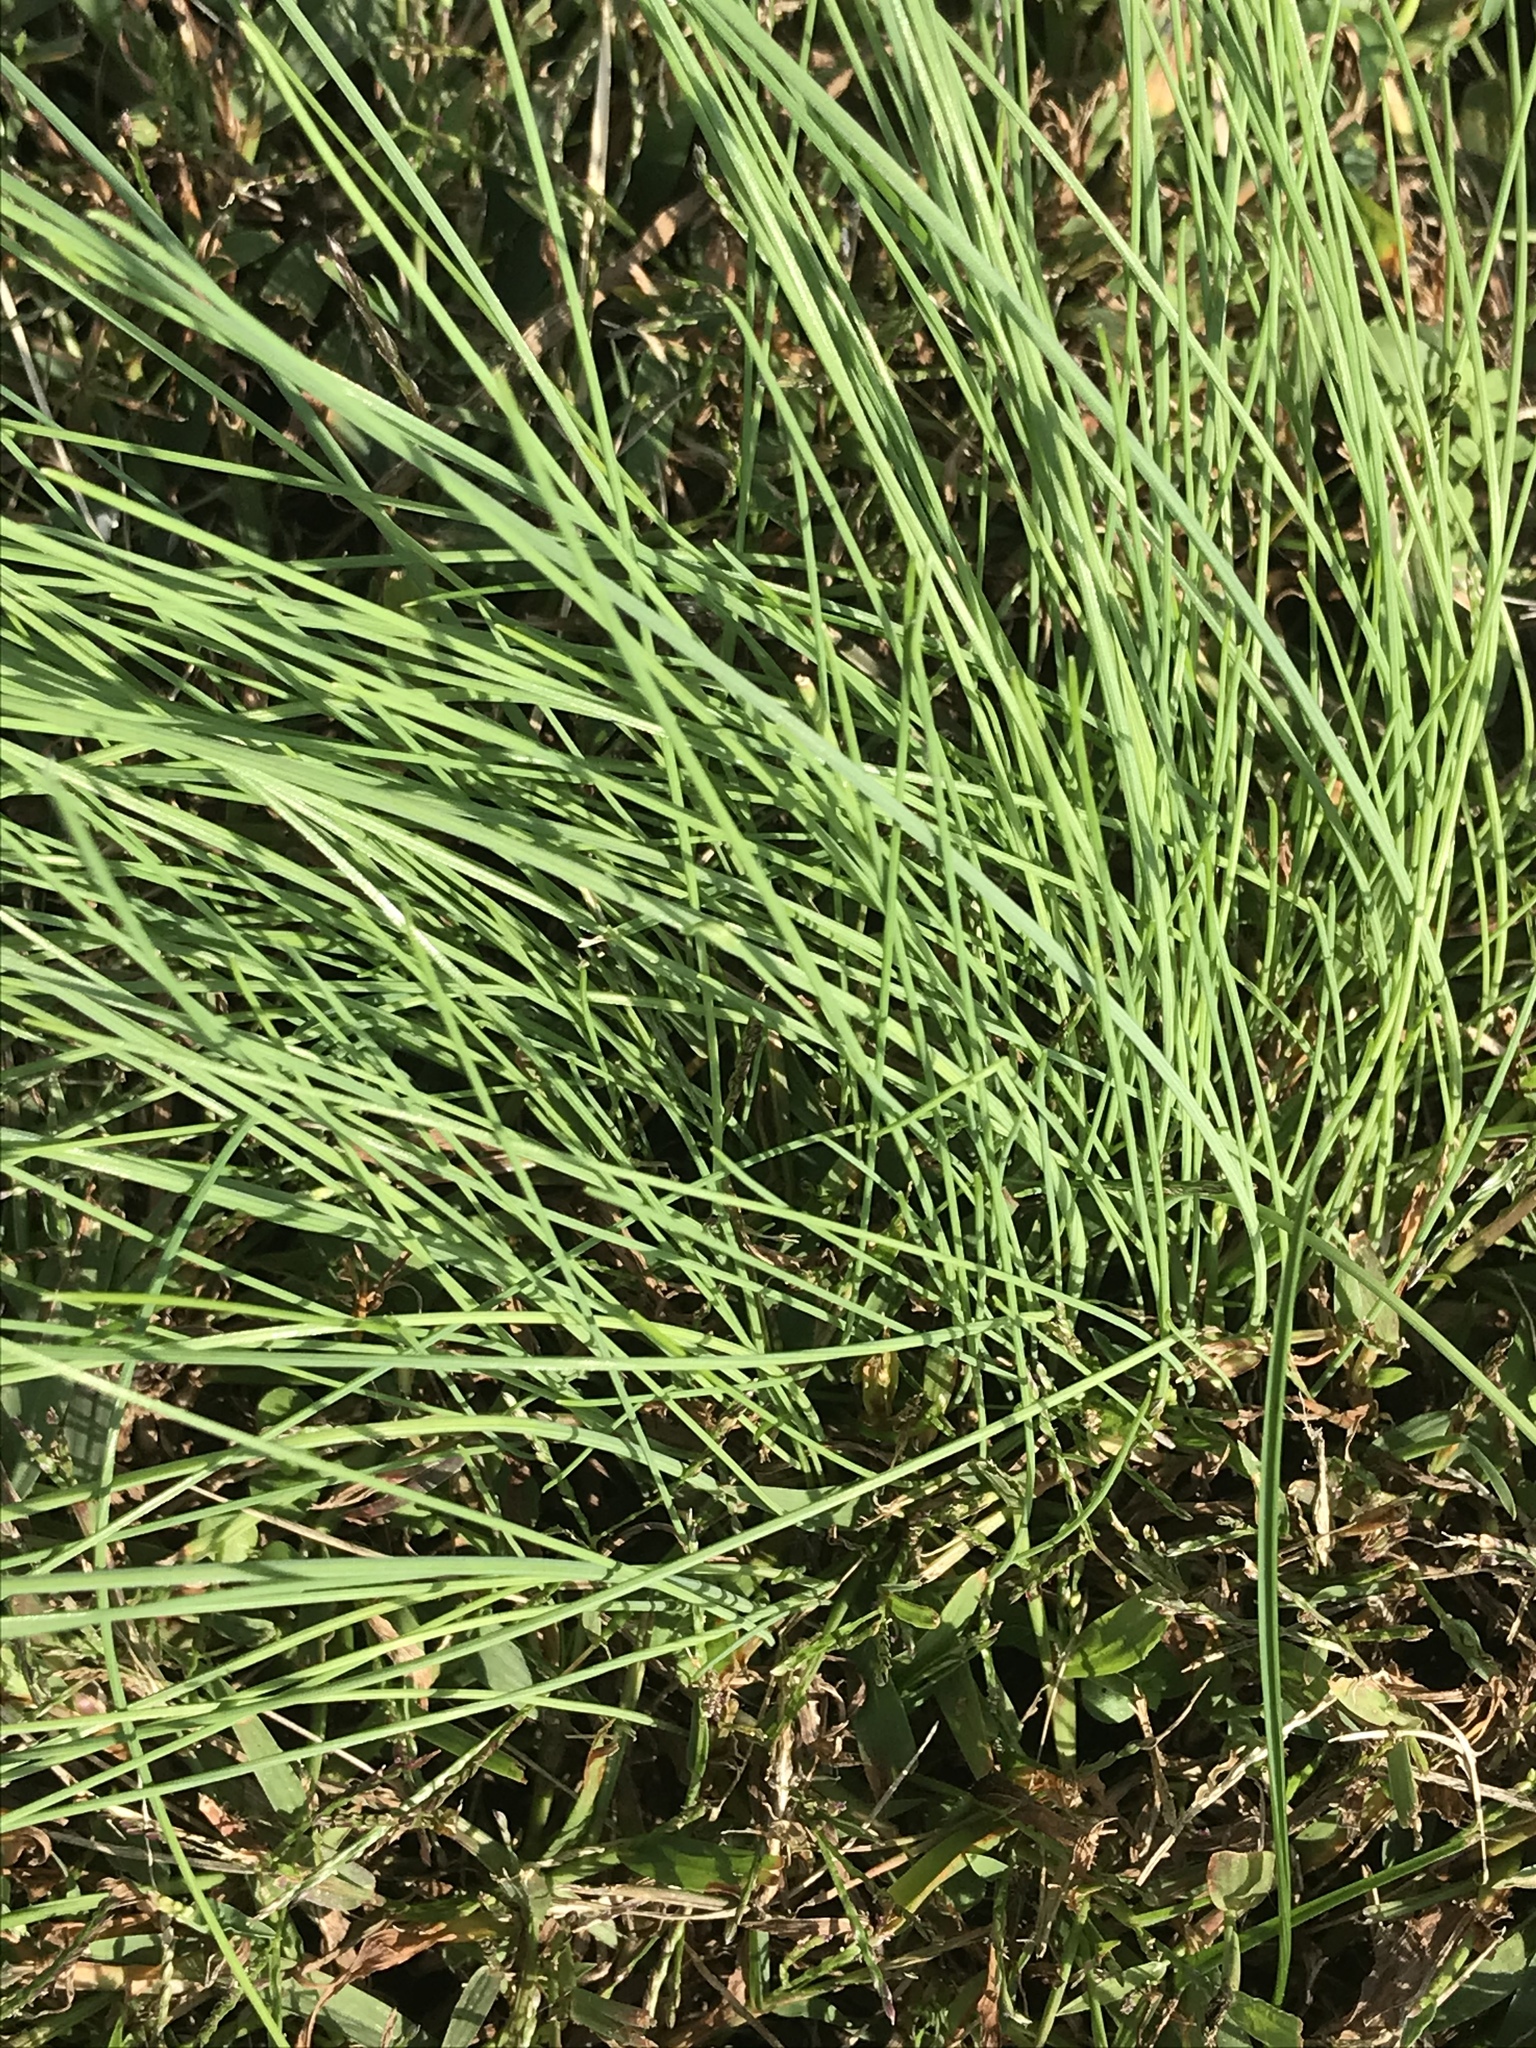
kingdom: Plantae
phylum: Tracheophyta
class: Liliopsida
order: Asparagales
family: Amaryllidaceae
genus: Allium
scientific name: Allium vineale
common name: Crow garlic
